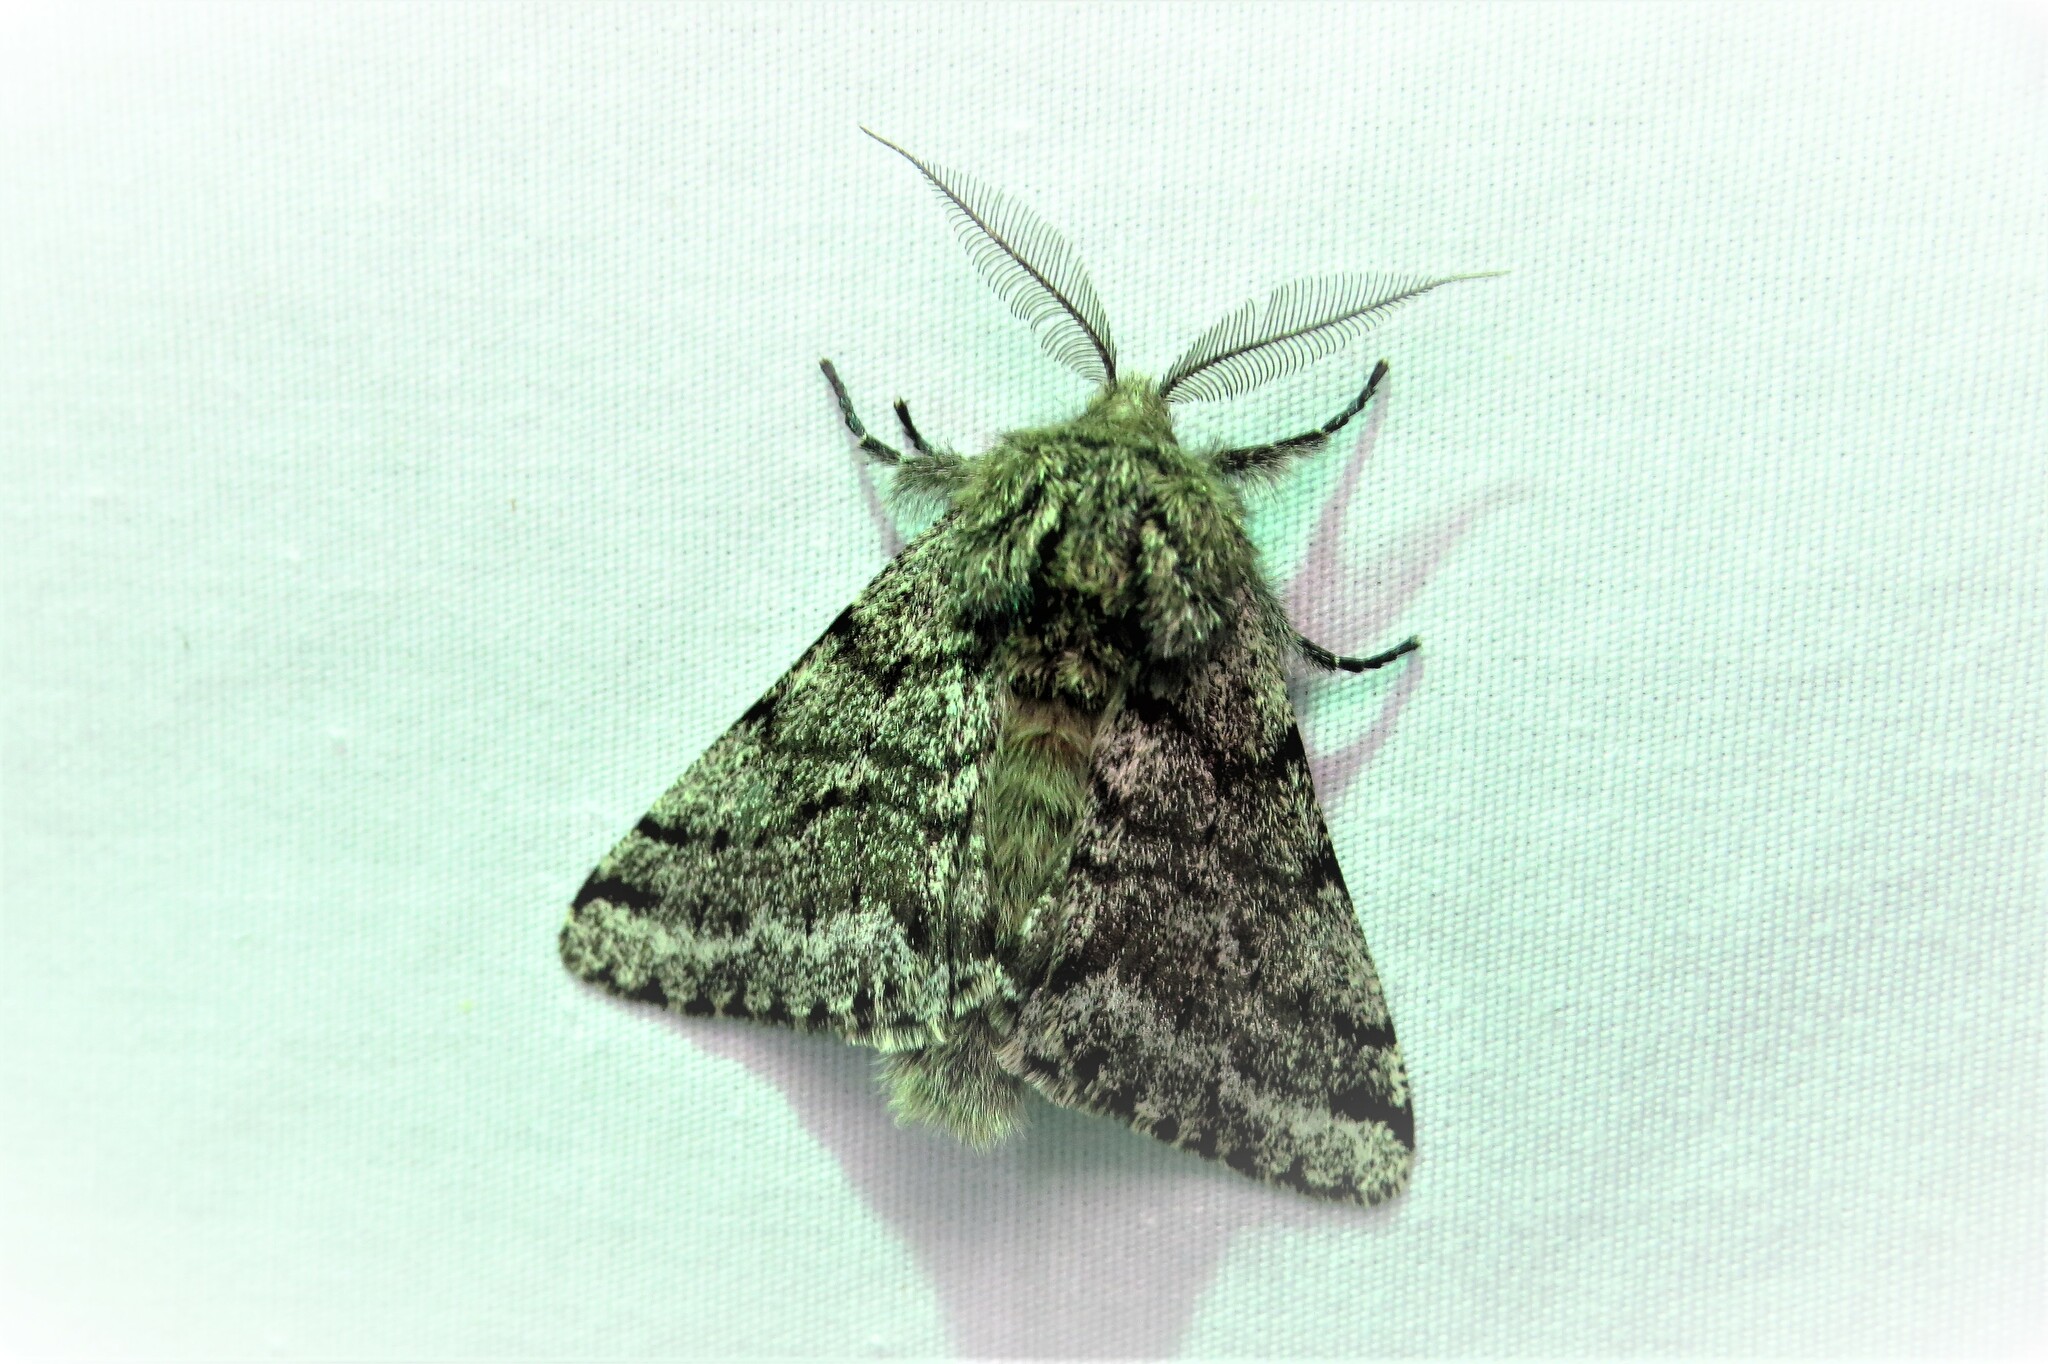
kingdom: Animalia
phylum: Arthropoda
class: Insecta
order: Lepidoptera
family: Geometridae
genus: Lycia
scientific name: Lycia ursaria
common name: Stout spanworm
